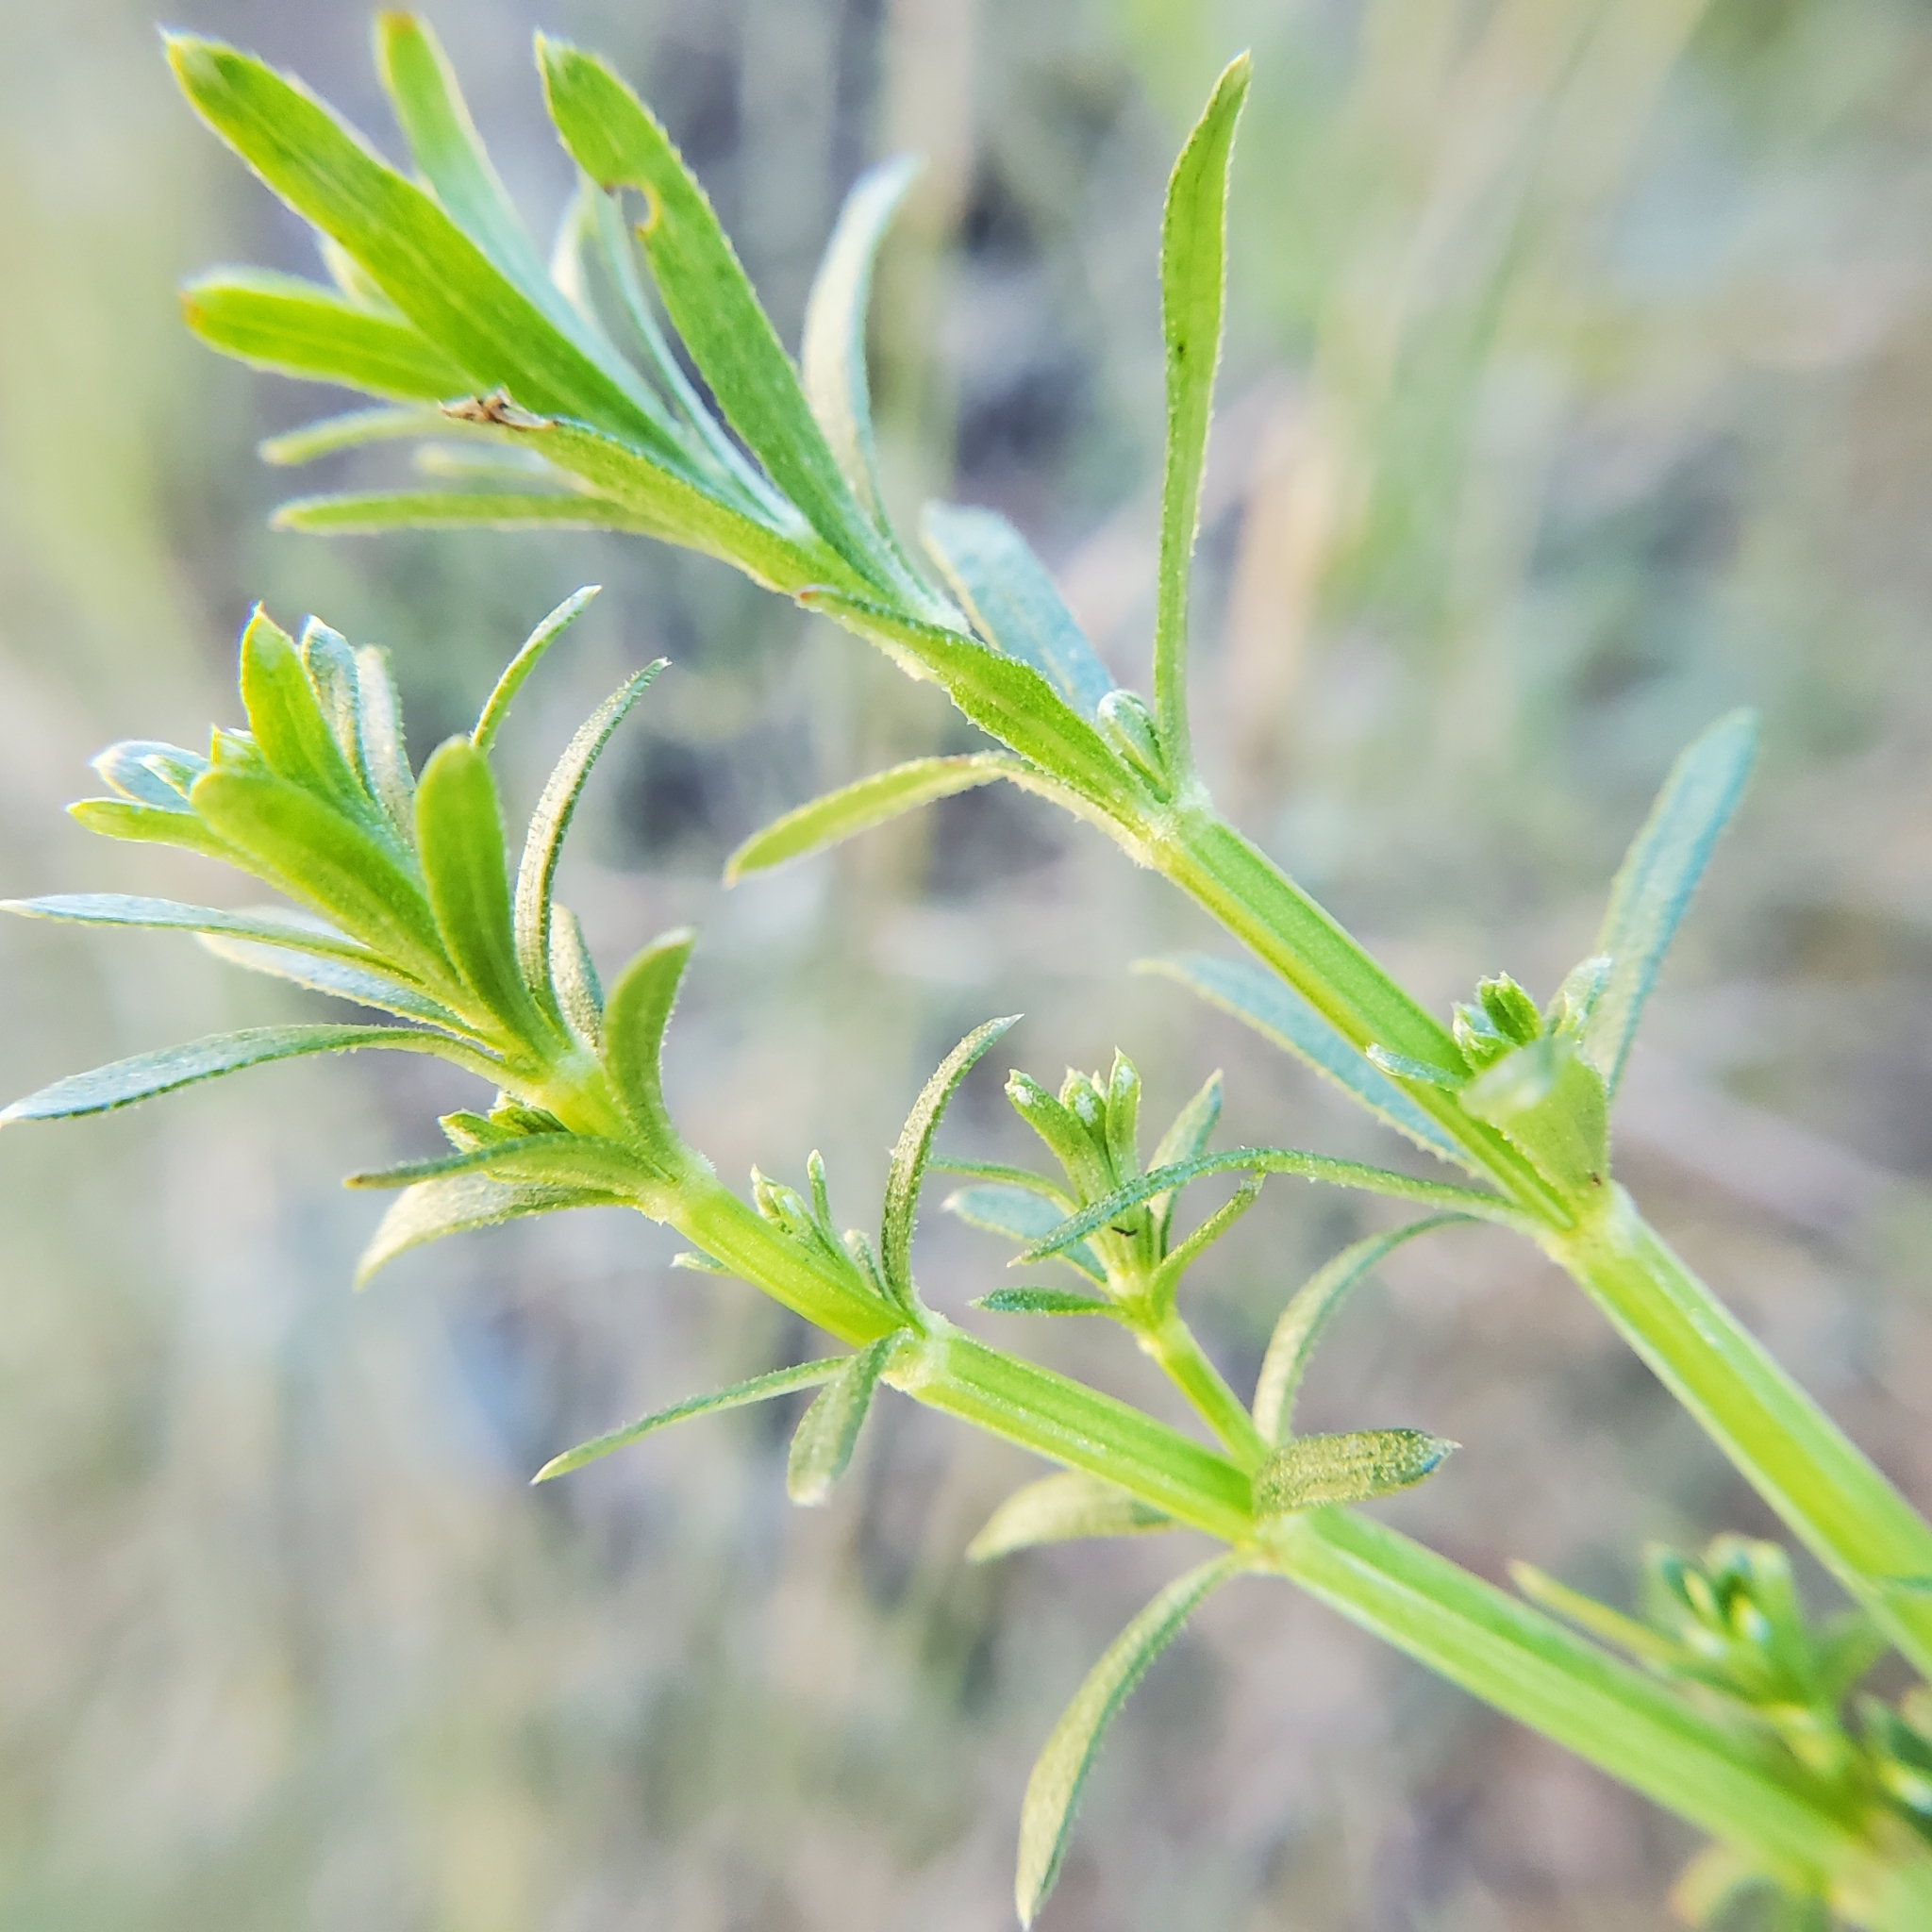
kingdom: Plantae
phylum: Tracheophyta
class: Magnoliopsida
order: Gentianales
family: Rubiaceae
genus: Galium
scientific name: Galium angustifolium
